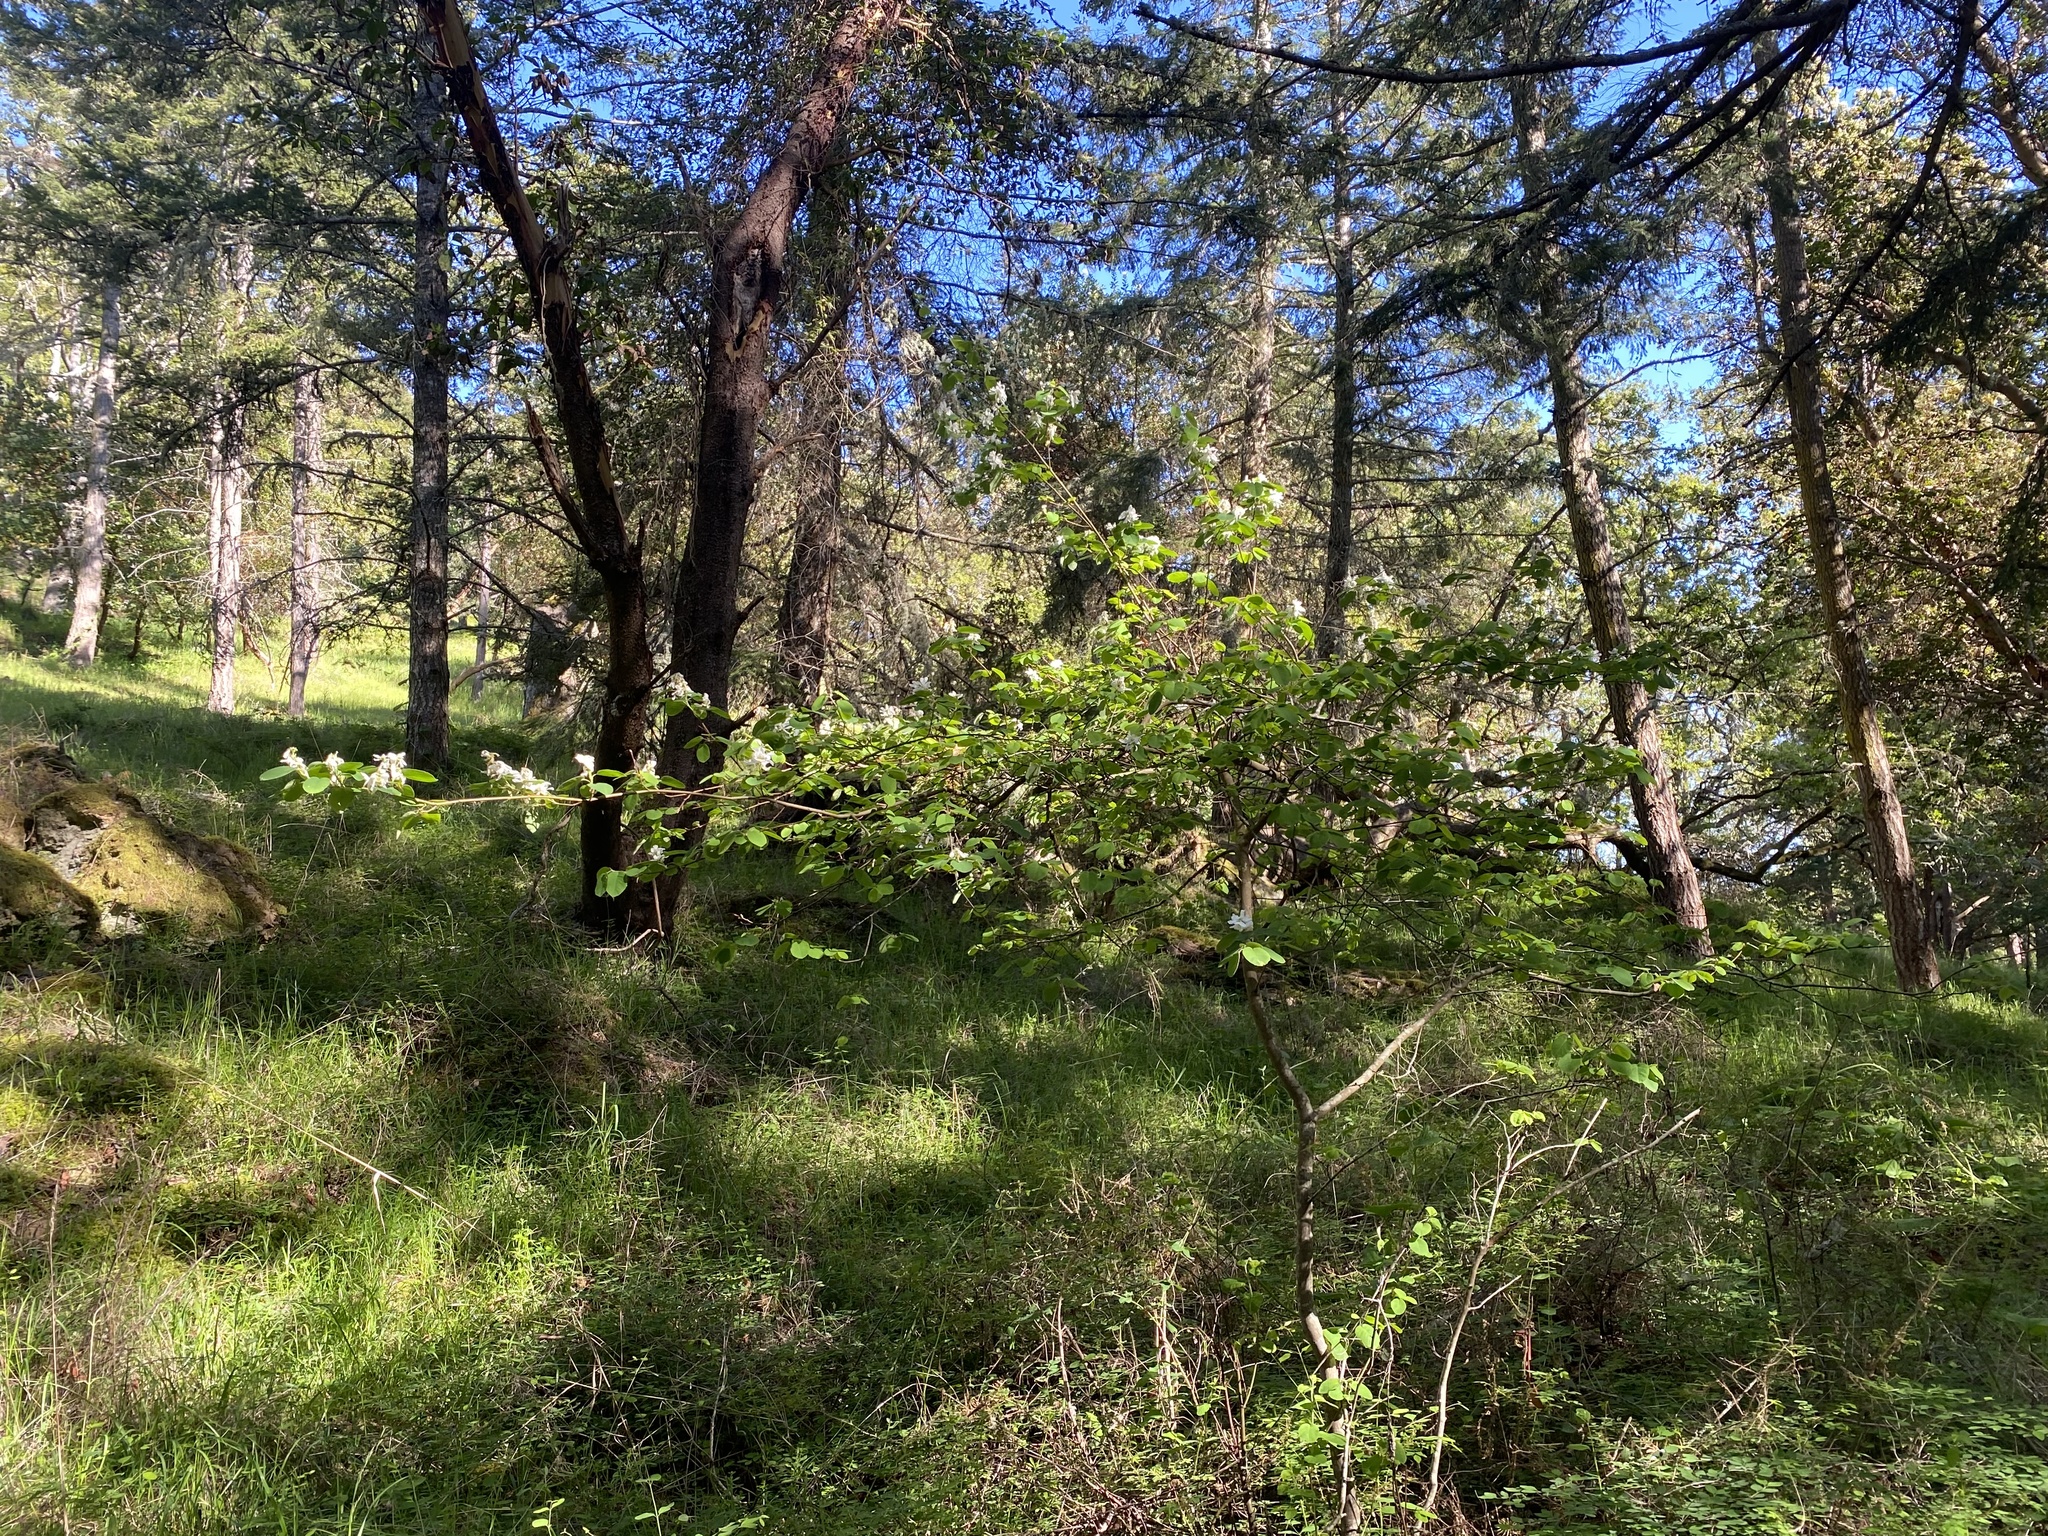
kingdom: Plantae
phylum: Tracheophyta
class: Magnoliopsida
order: Rosales
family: Rosaceae
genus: Amelanchier
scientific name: Amelanchier alnifolia
